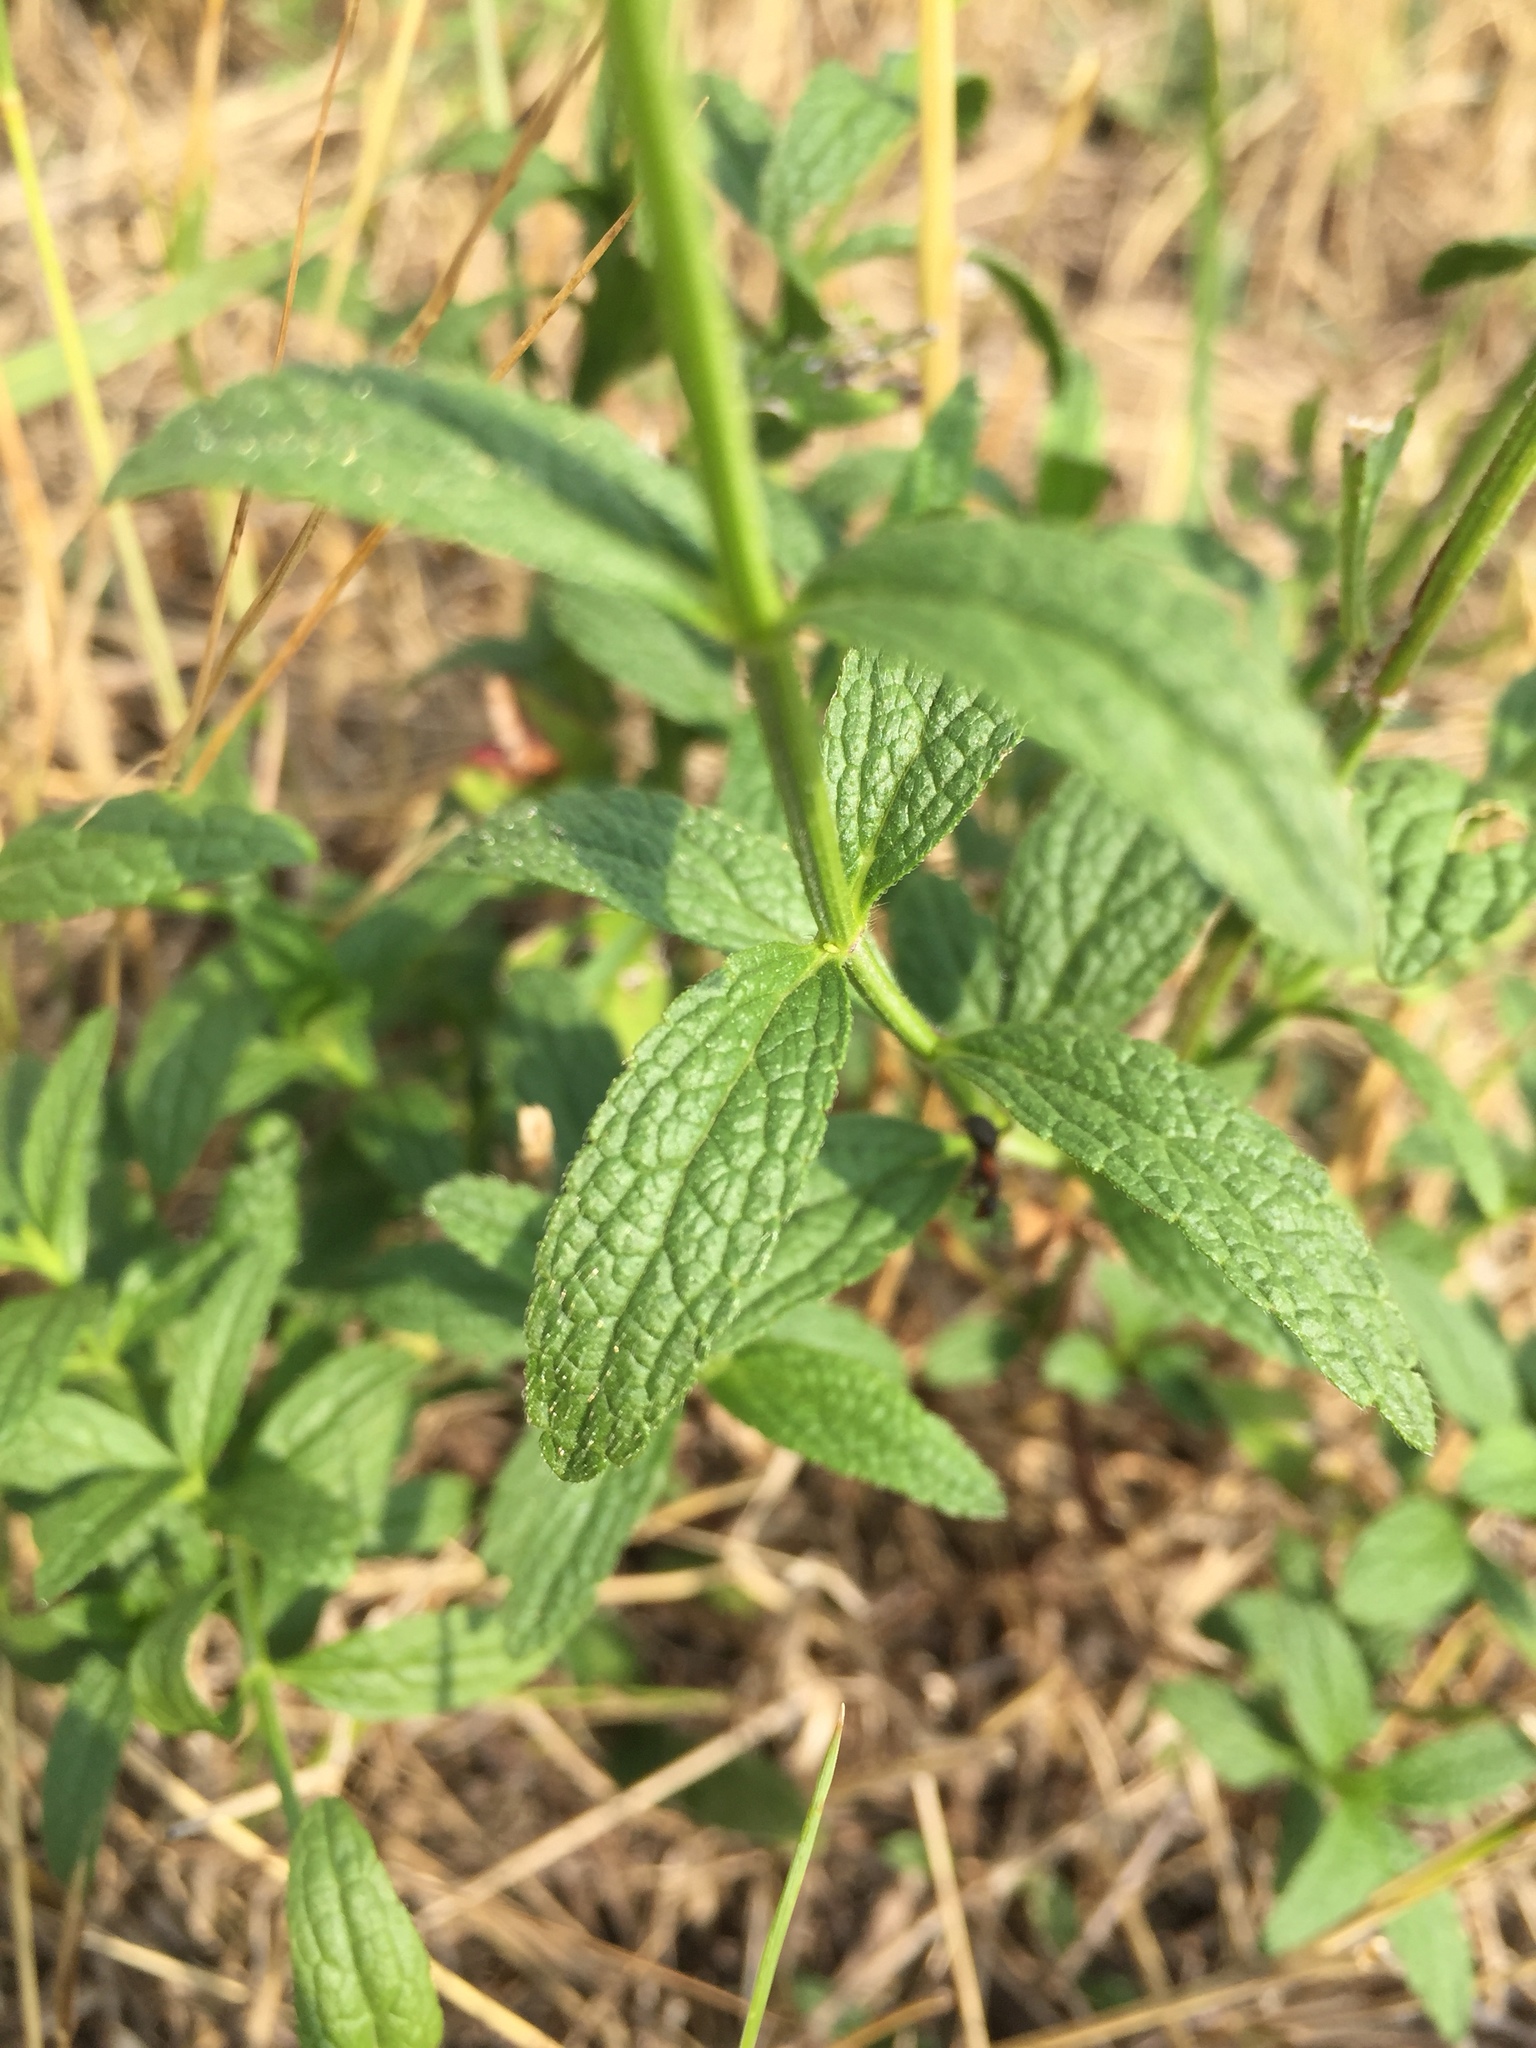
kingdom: Plantae
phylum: Tracheophyta
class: Magnoliopsida
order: Lamiales
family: Lamiaceae
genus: Stachys
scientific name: Stachys recta
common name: Perennial yellow-woundwort
